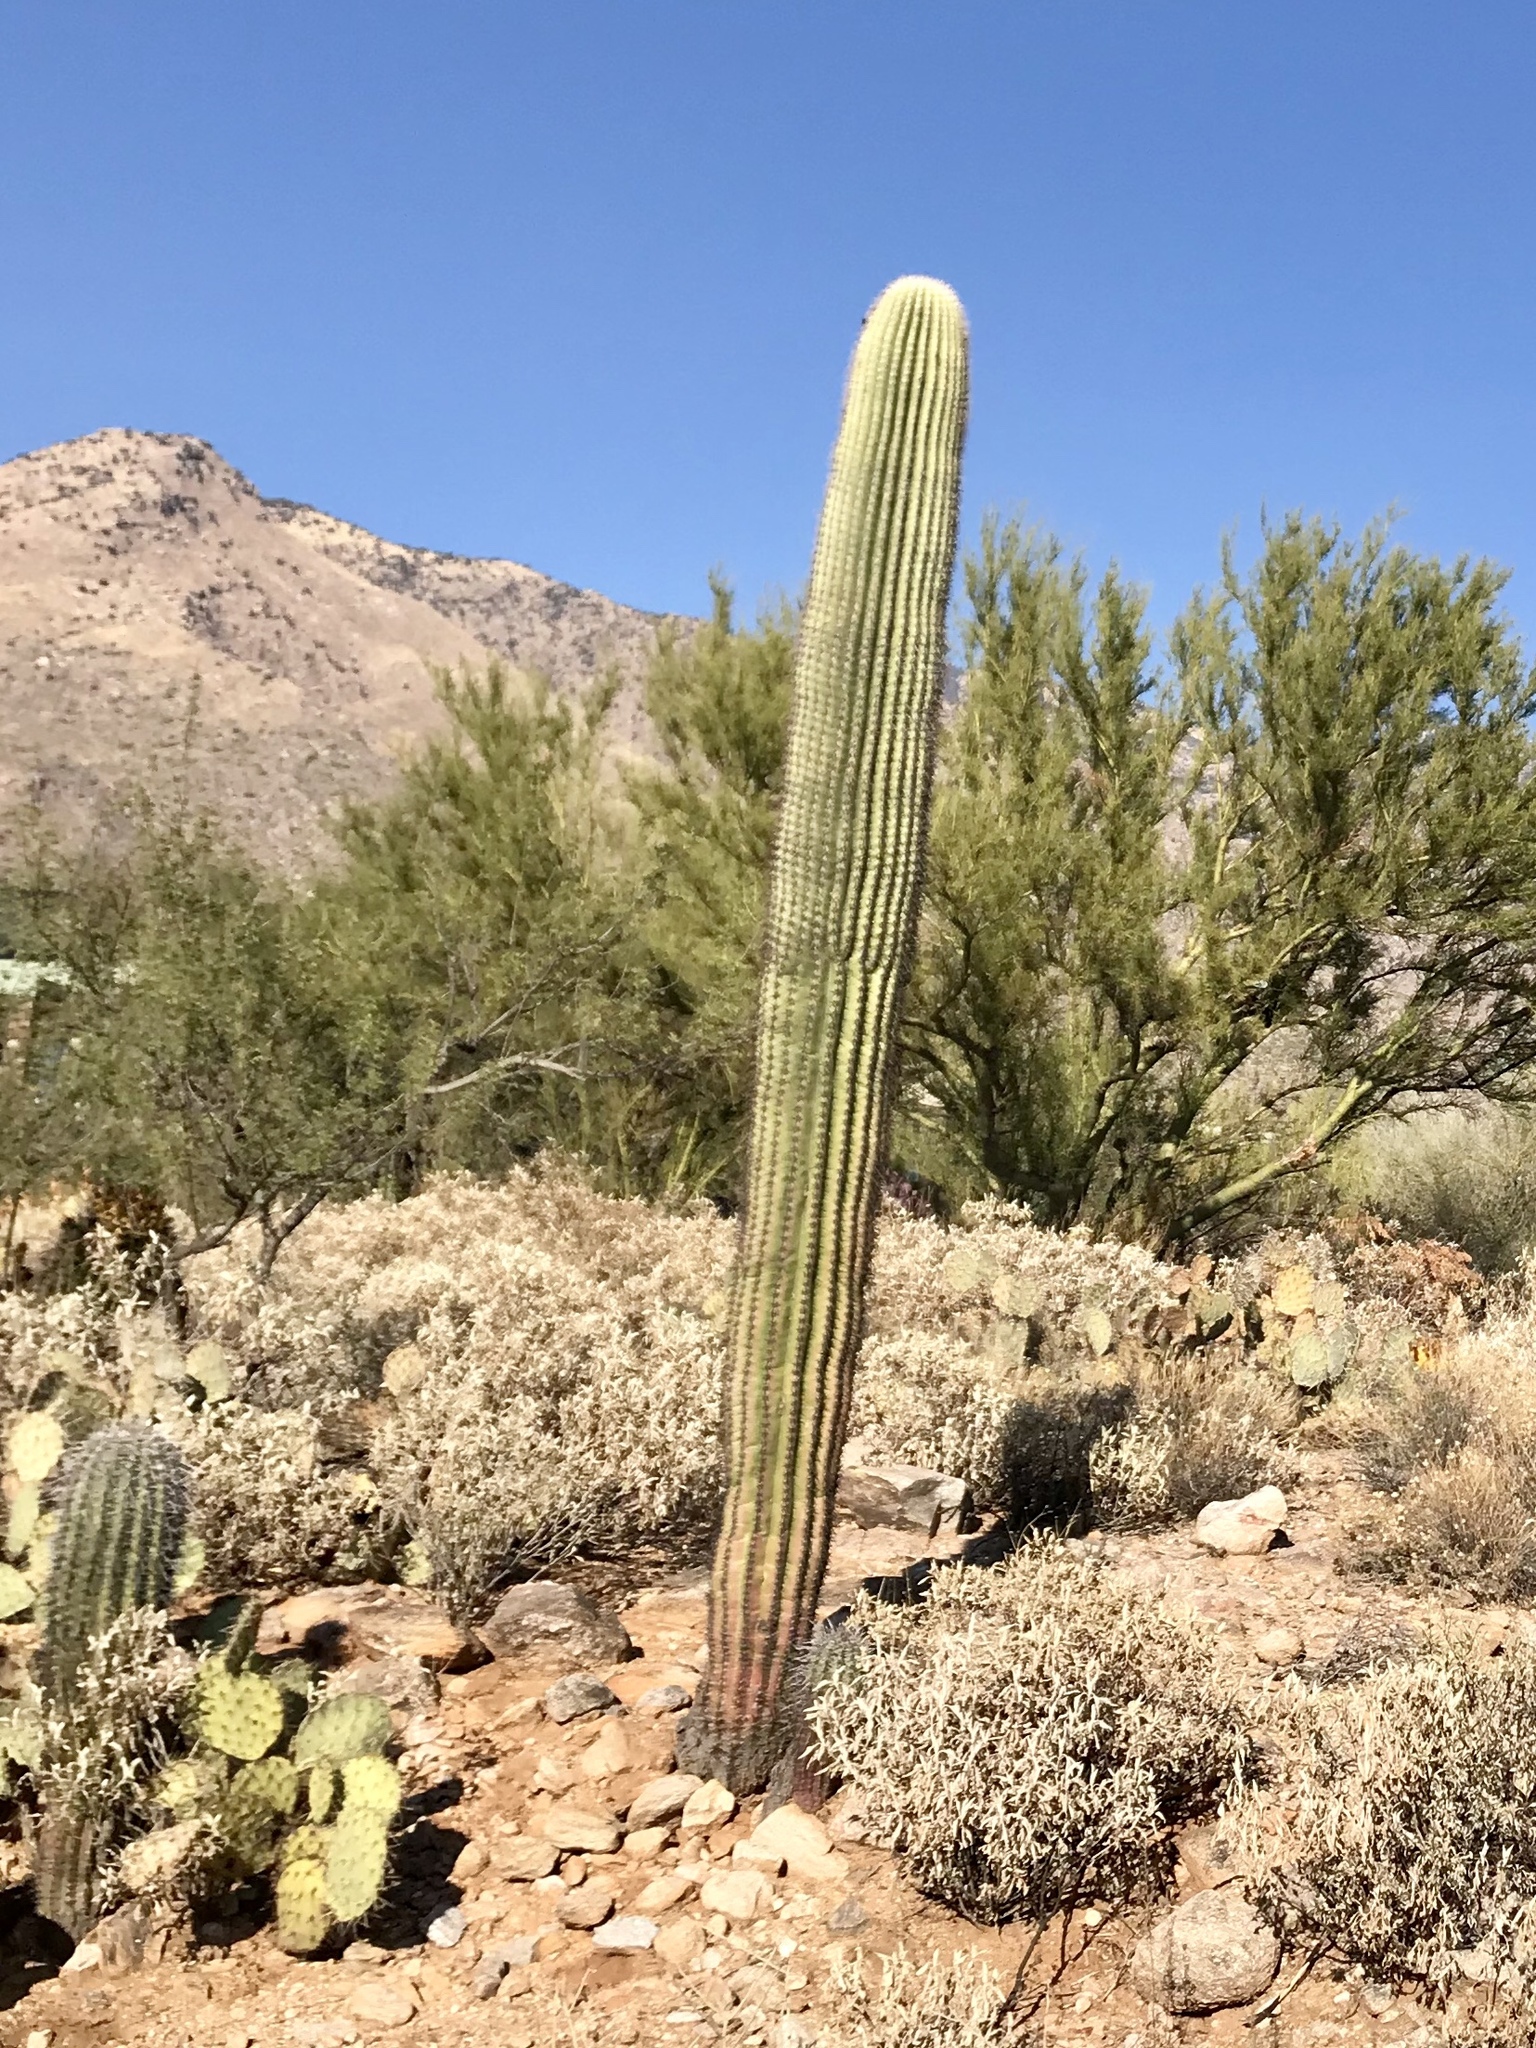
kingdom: Plantae
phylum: Tracheophyta
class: Magnoliopsida
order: Caryophyllales
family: Cactaceae
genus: Carnegiea
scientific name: Carnegiea gigantea
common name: Saguaro
